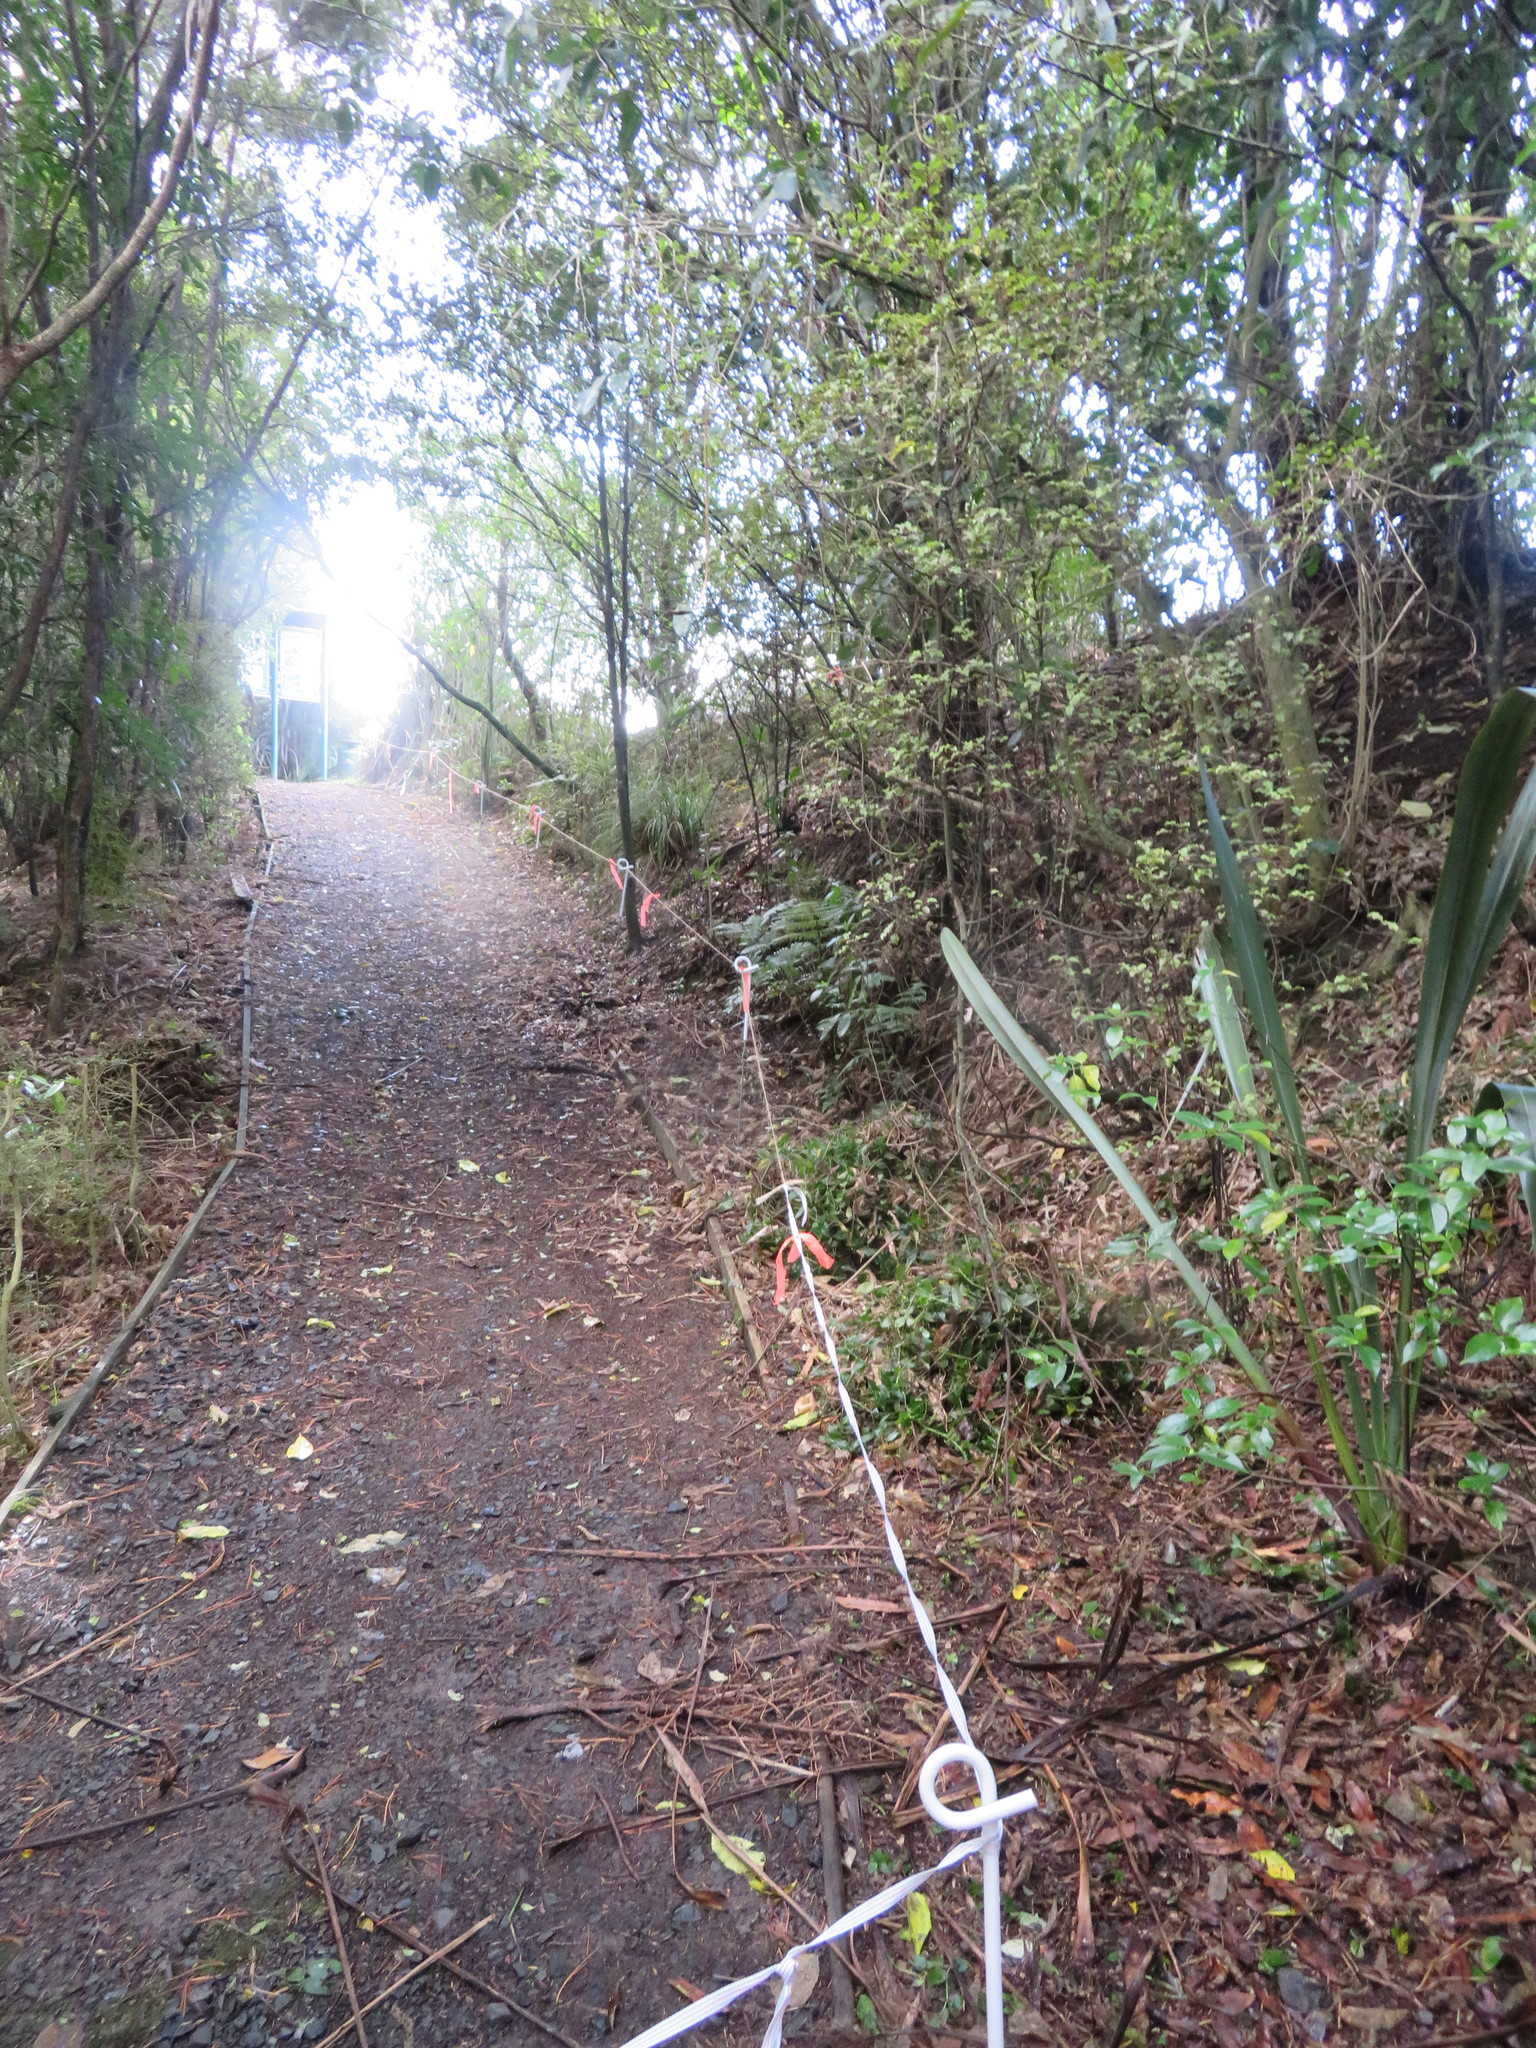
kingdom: Plantae
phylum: Tracheophyta
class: Liliopsida
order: Commelinales
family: Commelinaceae
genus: Tradescantia
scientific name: Tradescantia fluminensis
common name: Wandering-jew
